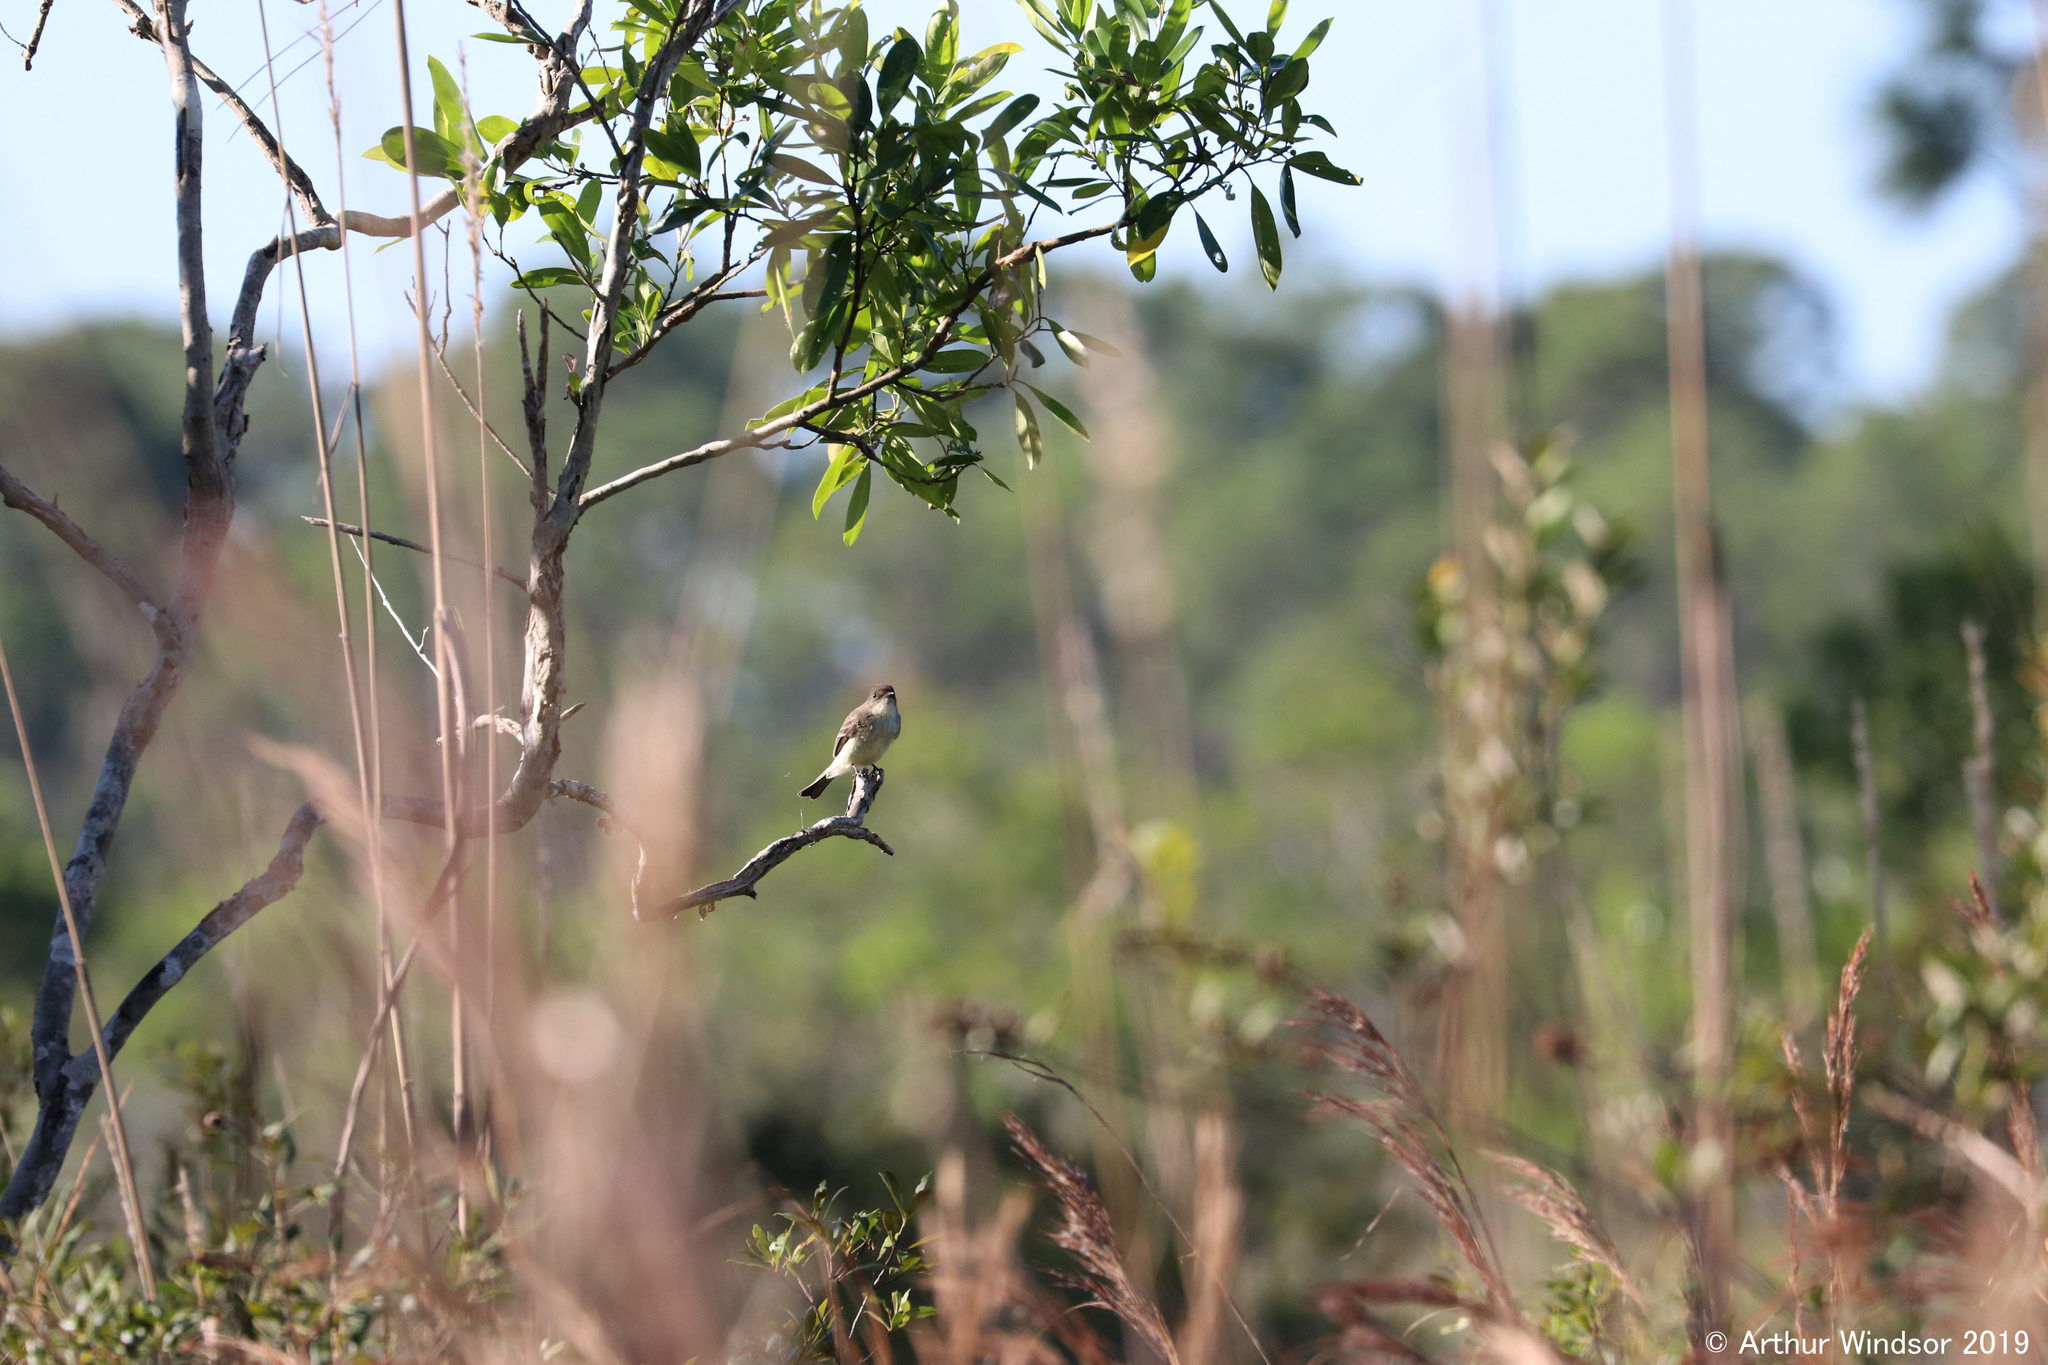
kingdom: Animalia
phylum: Chordata
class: Aves
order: Passeriformes
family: Tyrannidae
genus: Sayornis
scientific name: Sayornis phoebe
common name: Eastern phoebe
